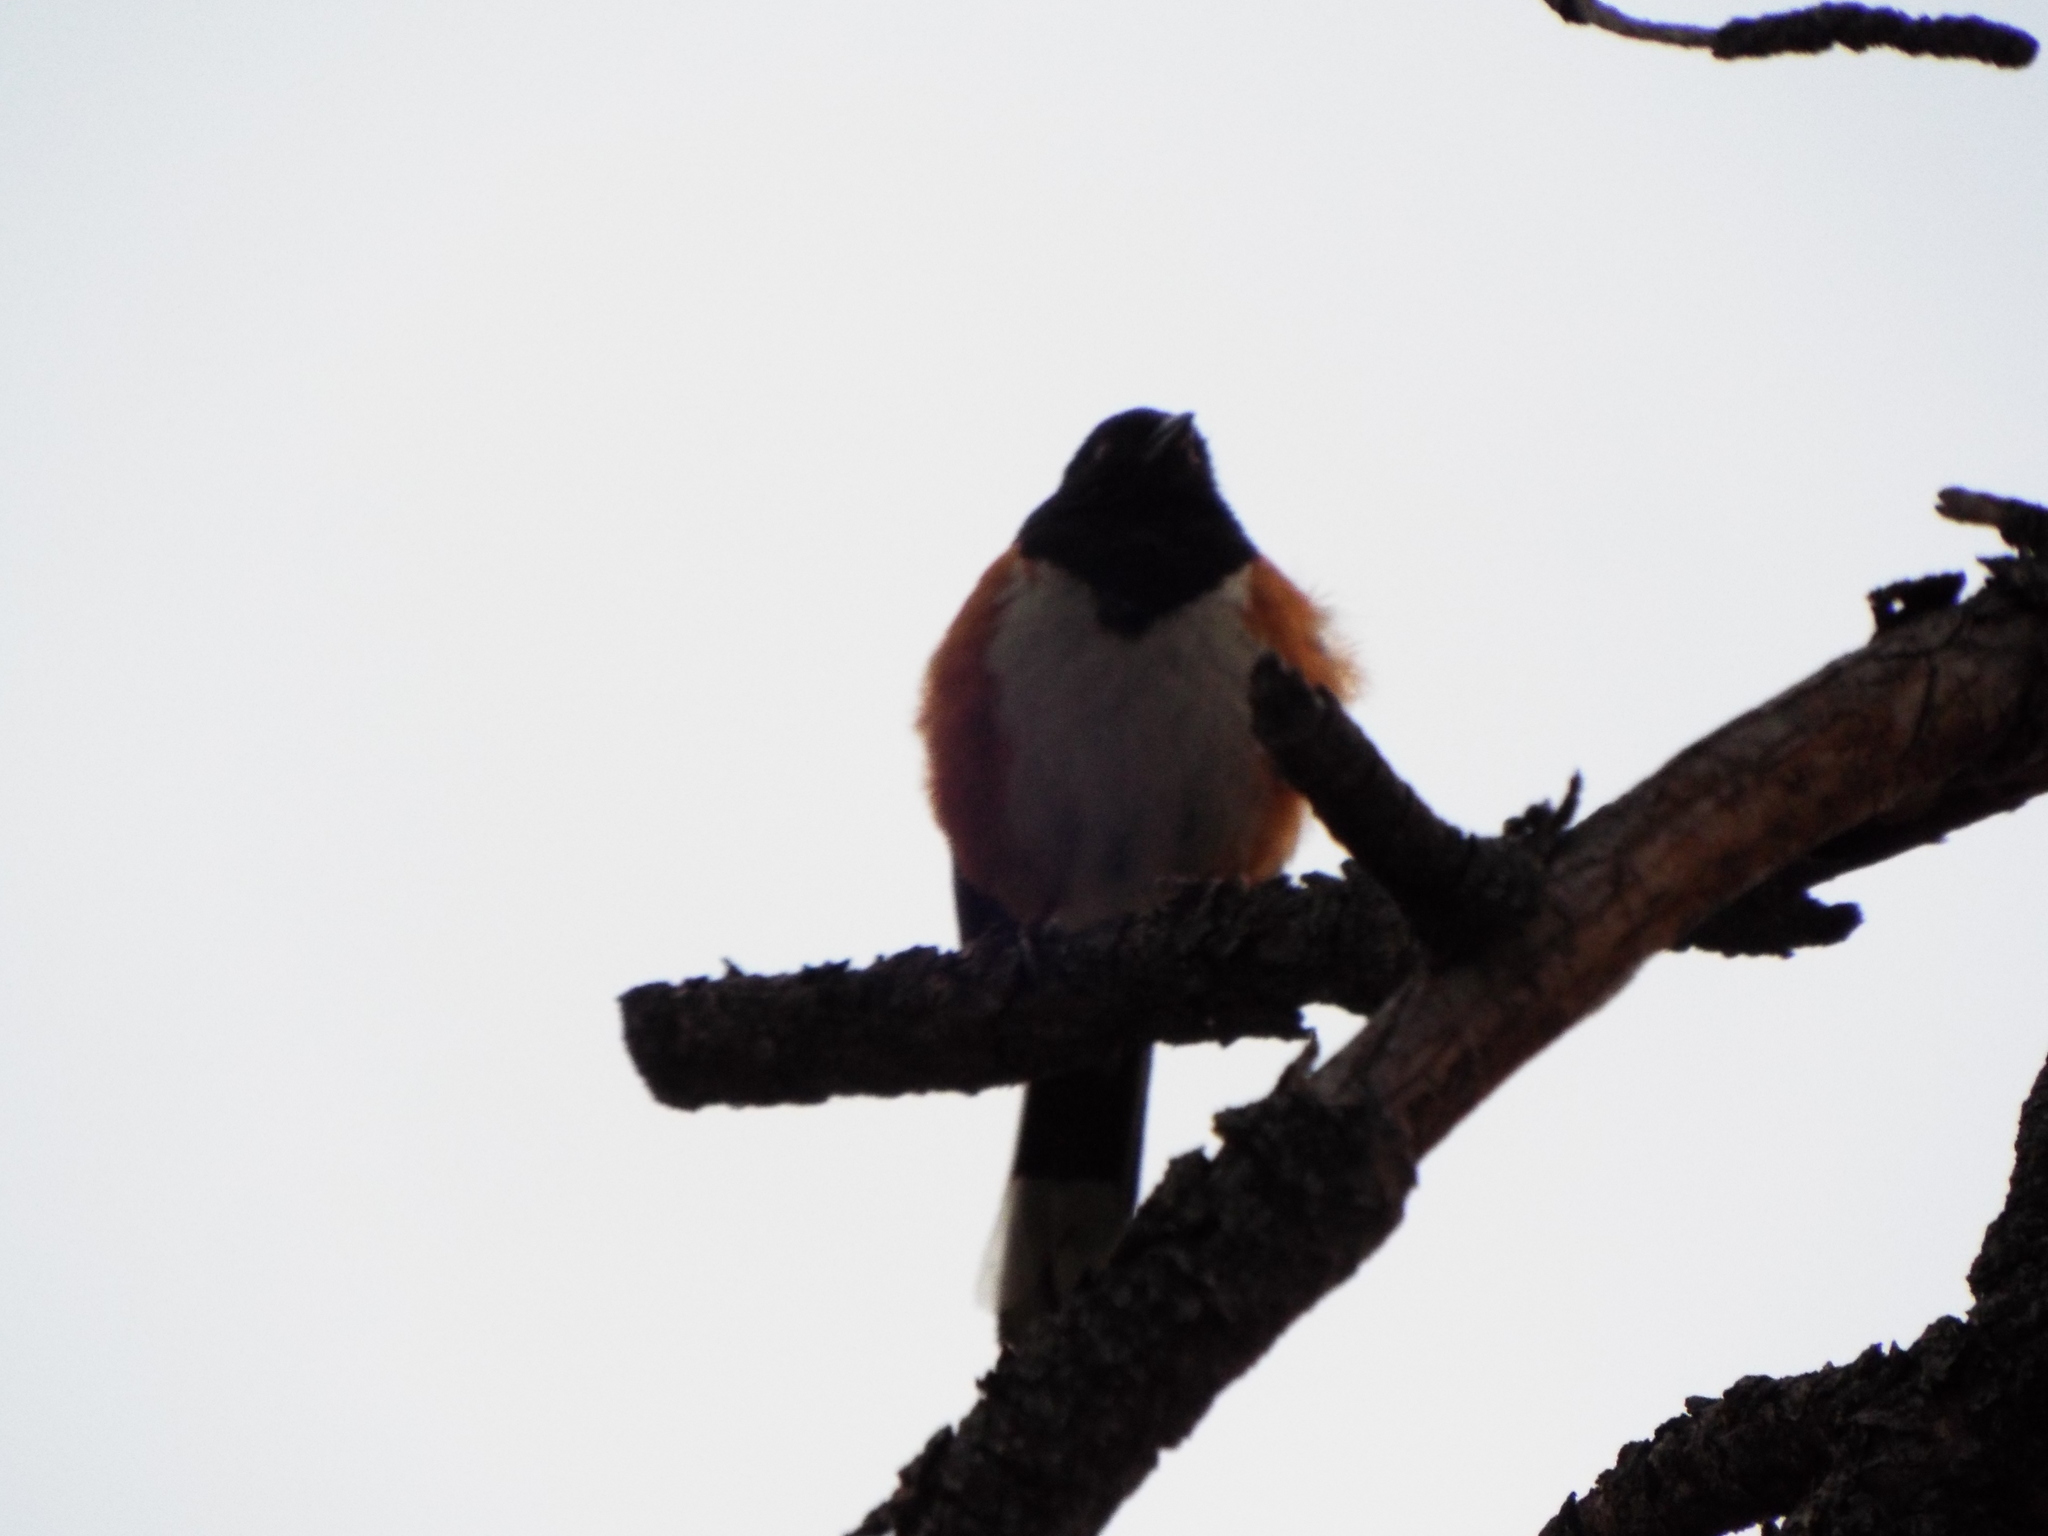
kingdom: Animalia
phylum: Chordata
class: Aves
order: Passeriformes
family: Passerellidae
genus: Pipilo
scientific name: Pipilo maculatus
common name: Spotted towhee
